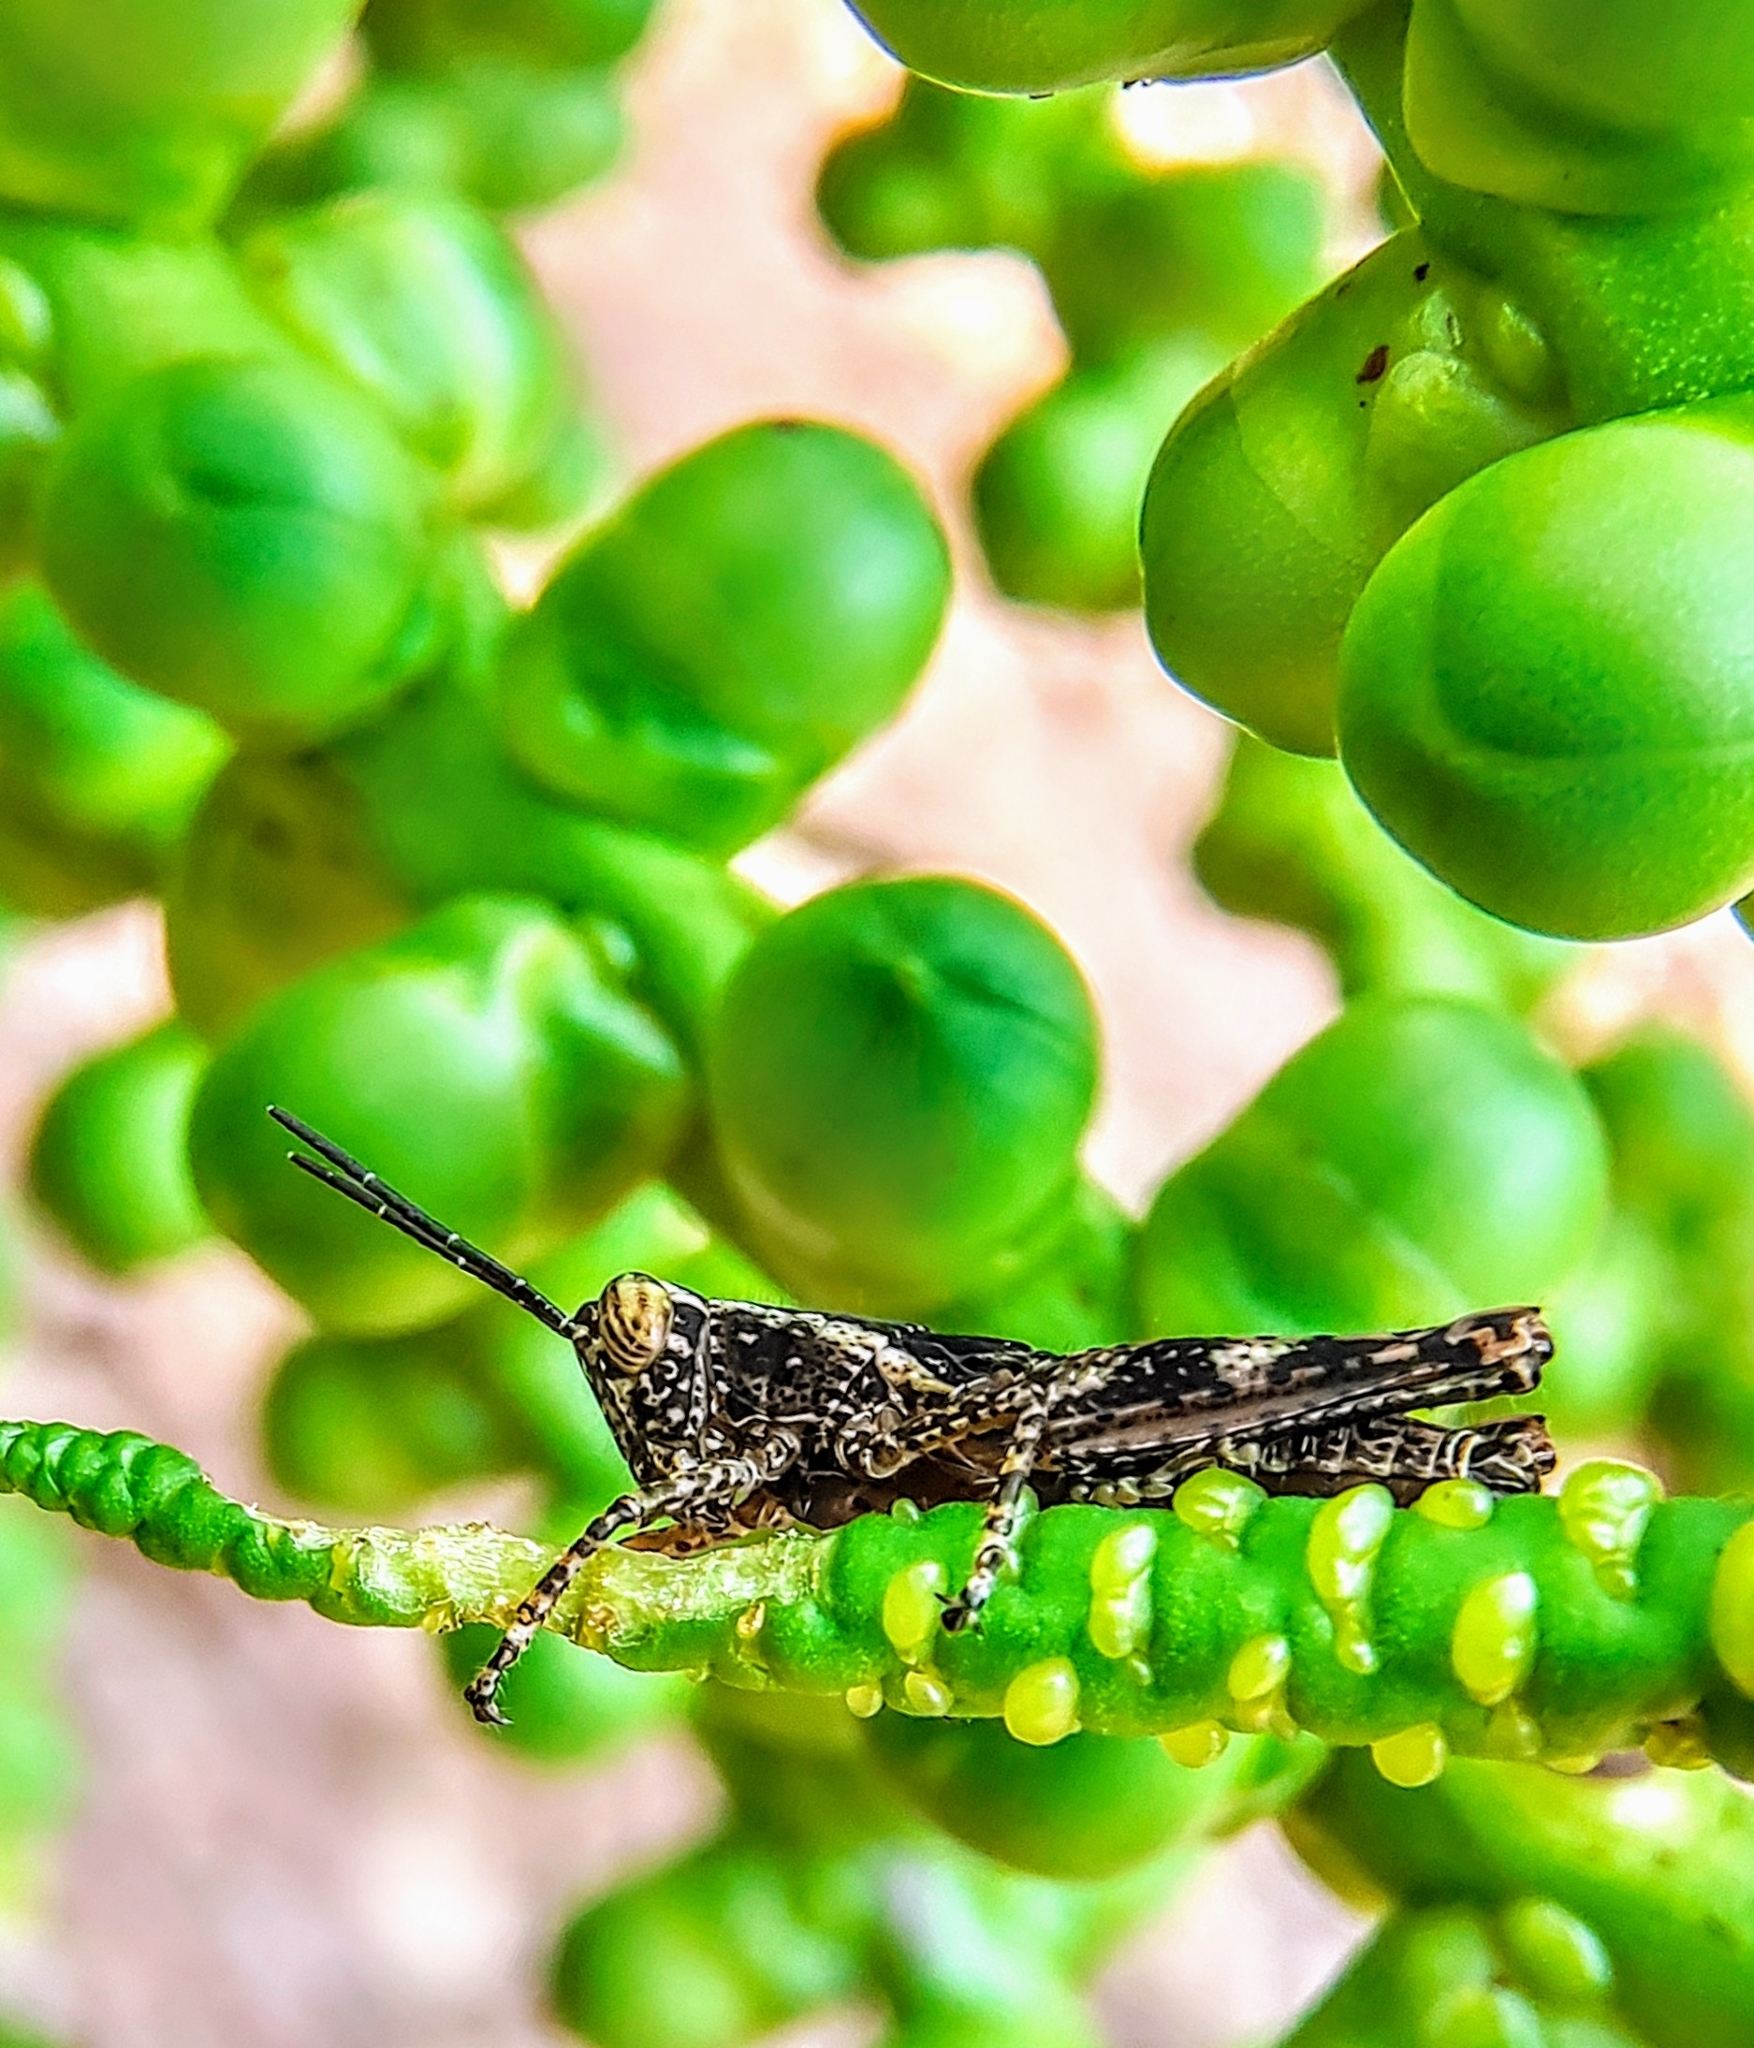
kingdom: Animalia
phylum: Arthropoda
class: Insecta
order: Orthoptera
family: Acrididae
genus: Xenocatantops
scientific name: Xenocatantops humile
